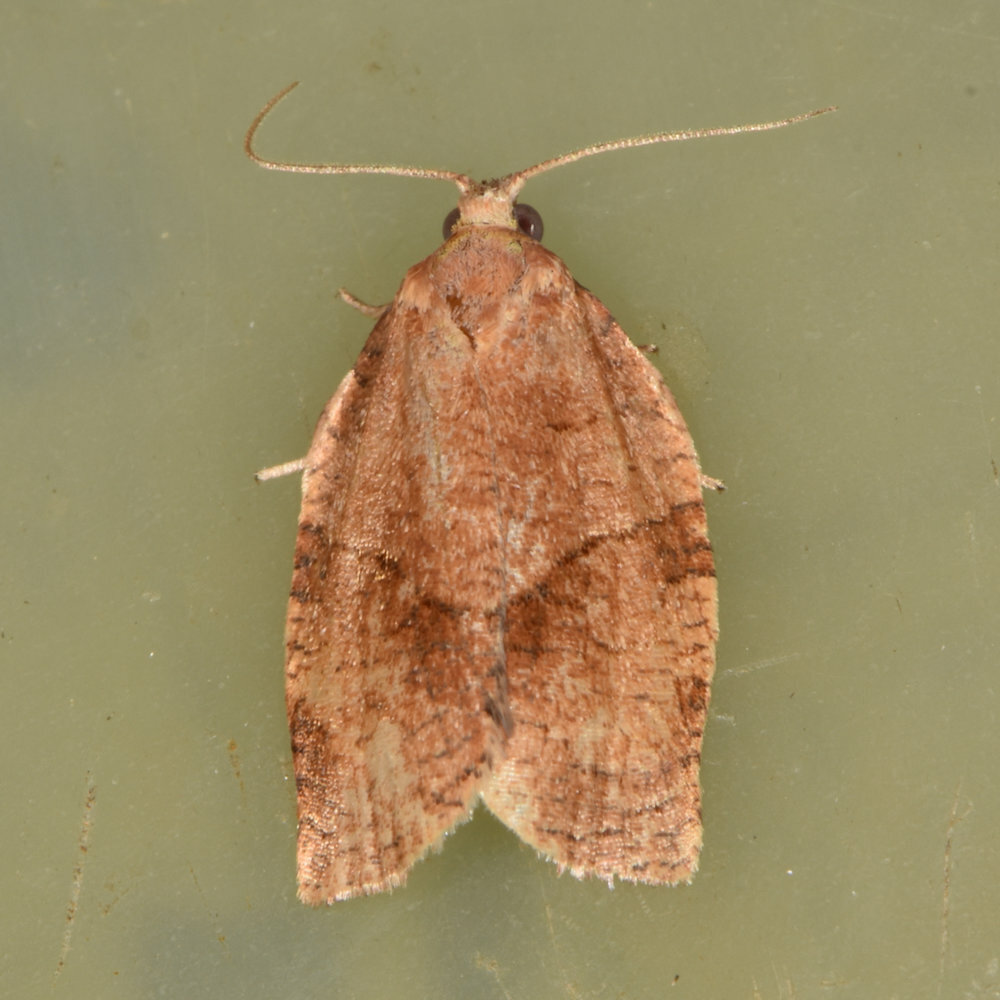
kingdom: Animalia
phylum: Arthropoda
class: Insecta
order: Lepidoptera
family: Tortricidae
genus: Choristoneura
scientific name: Choristoneura rosaceana
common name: Oblique-banded leafroller moth
